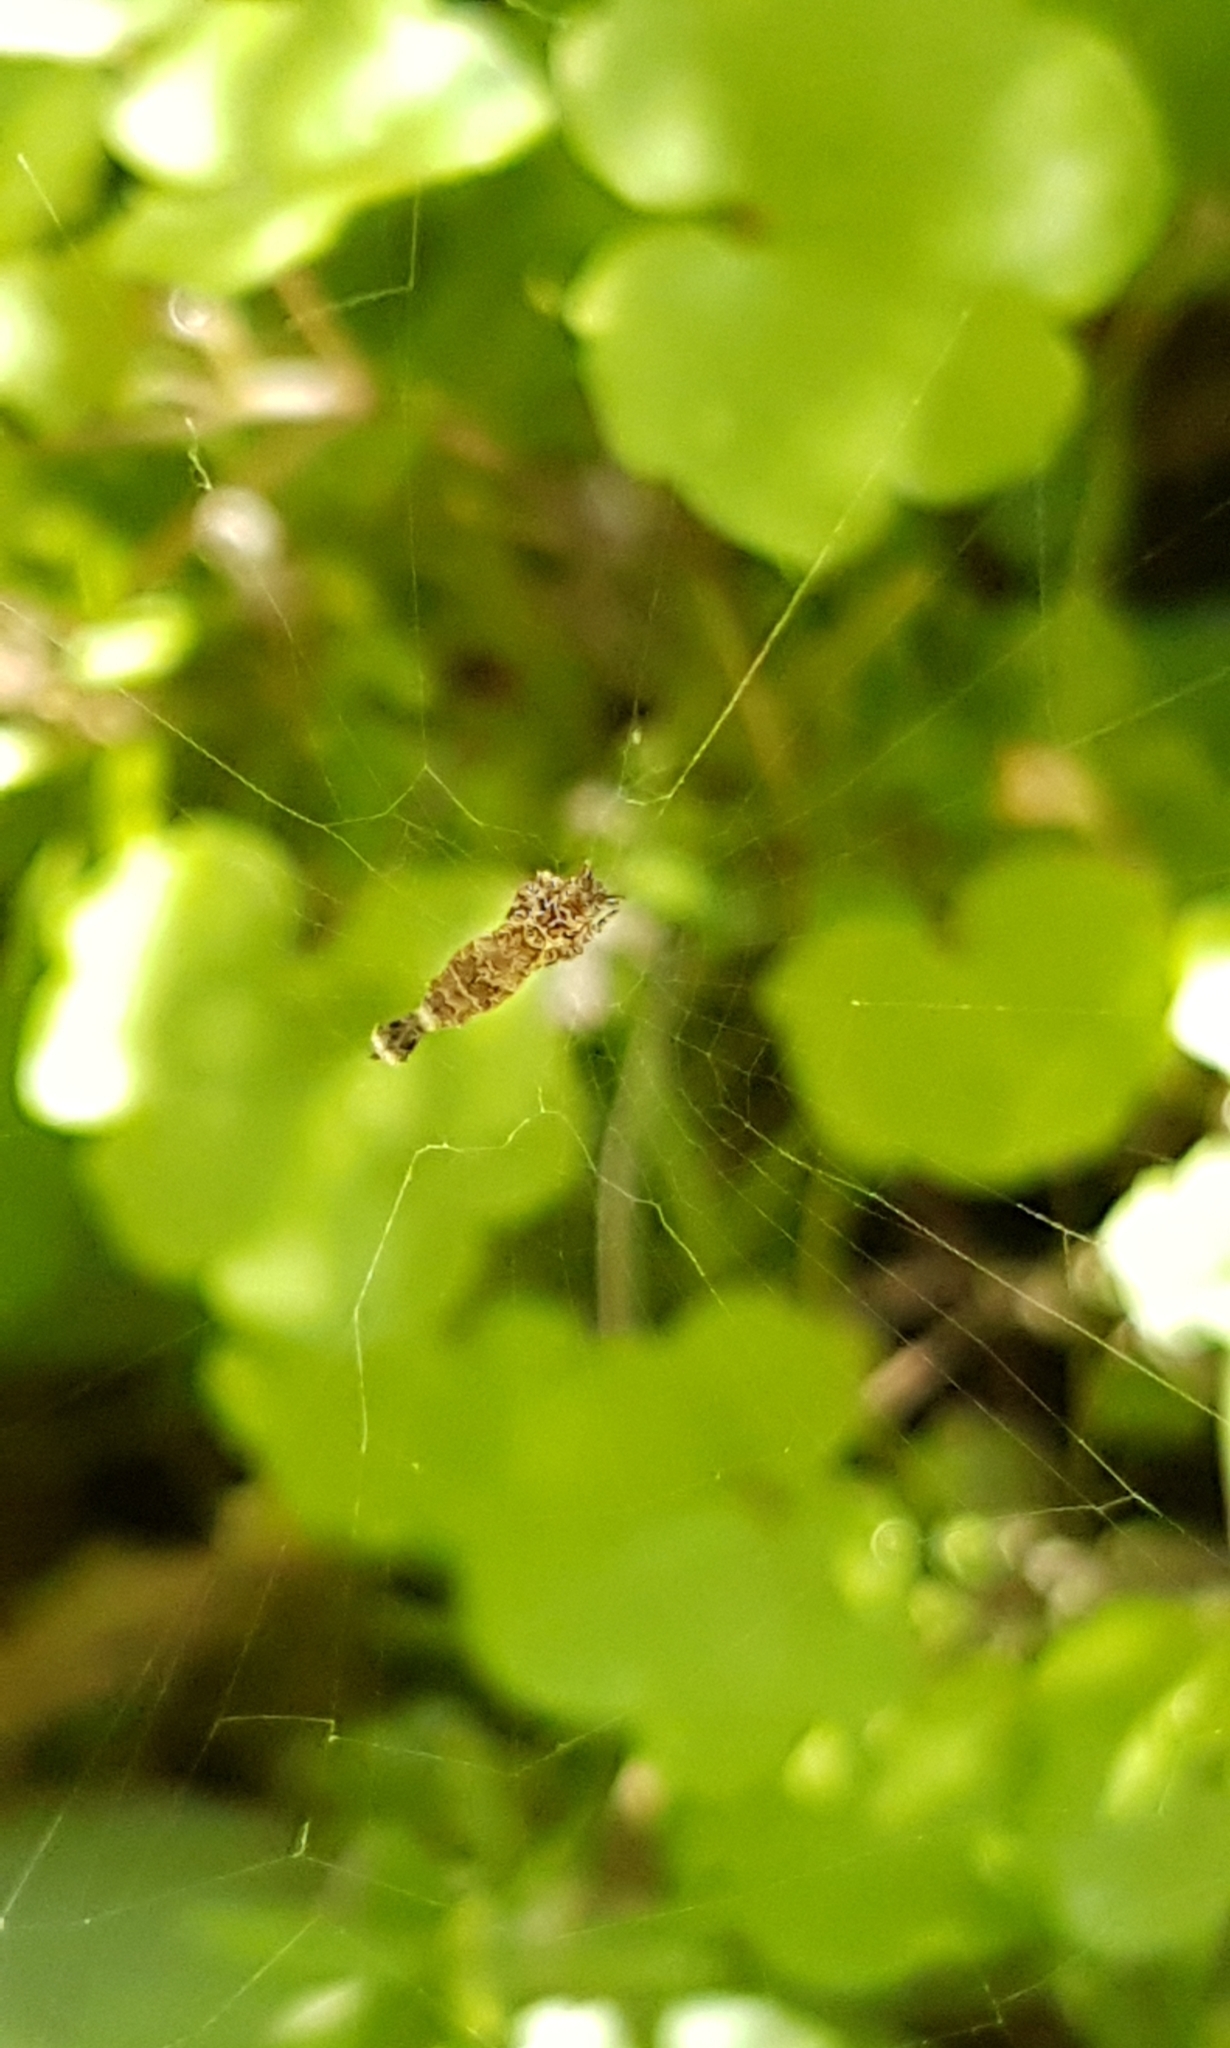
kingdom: Animalia
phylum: Arthropoda
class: Arachnida
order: Araneae
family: Uloboridae
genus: Uloborus
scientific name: Uloborus plumipes
